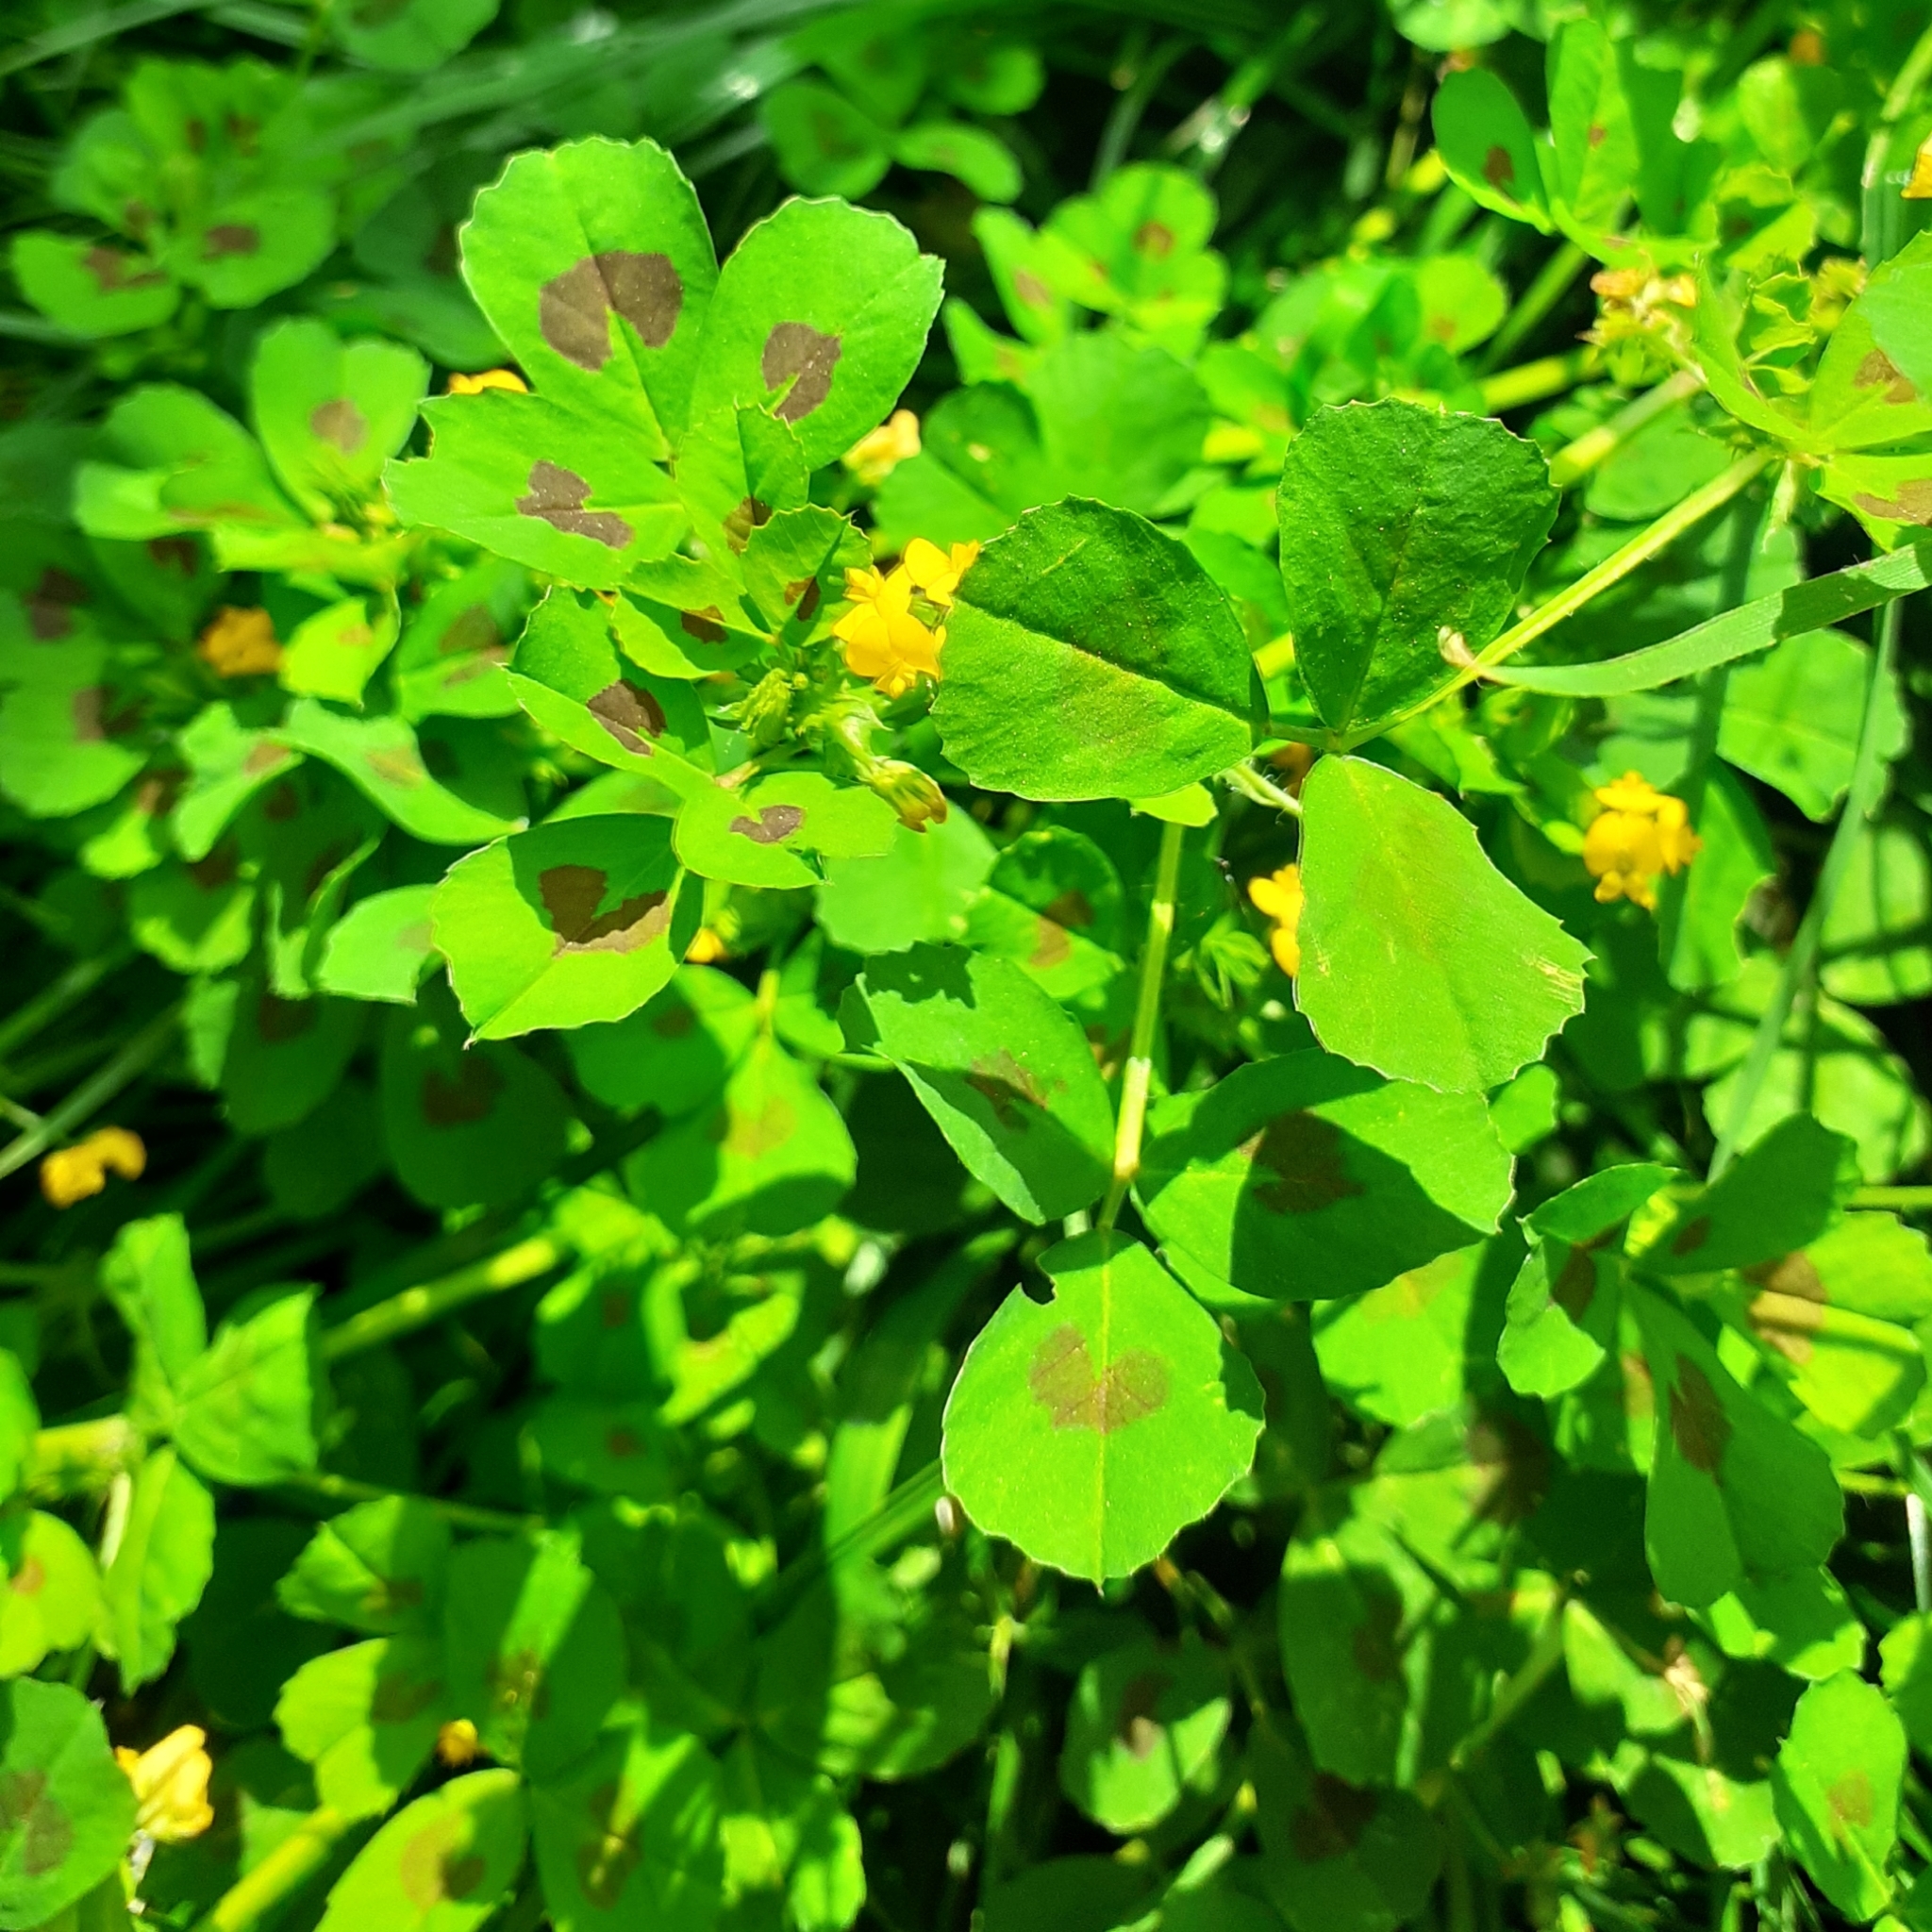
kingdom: Plantae
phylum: Tracheophyta
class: Magnoliopsida
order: Fabales
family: Fabaceae
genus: Medicago
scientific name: Medicago arabica
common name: Spotted medick
